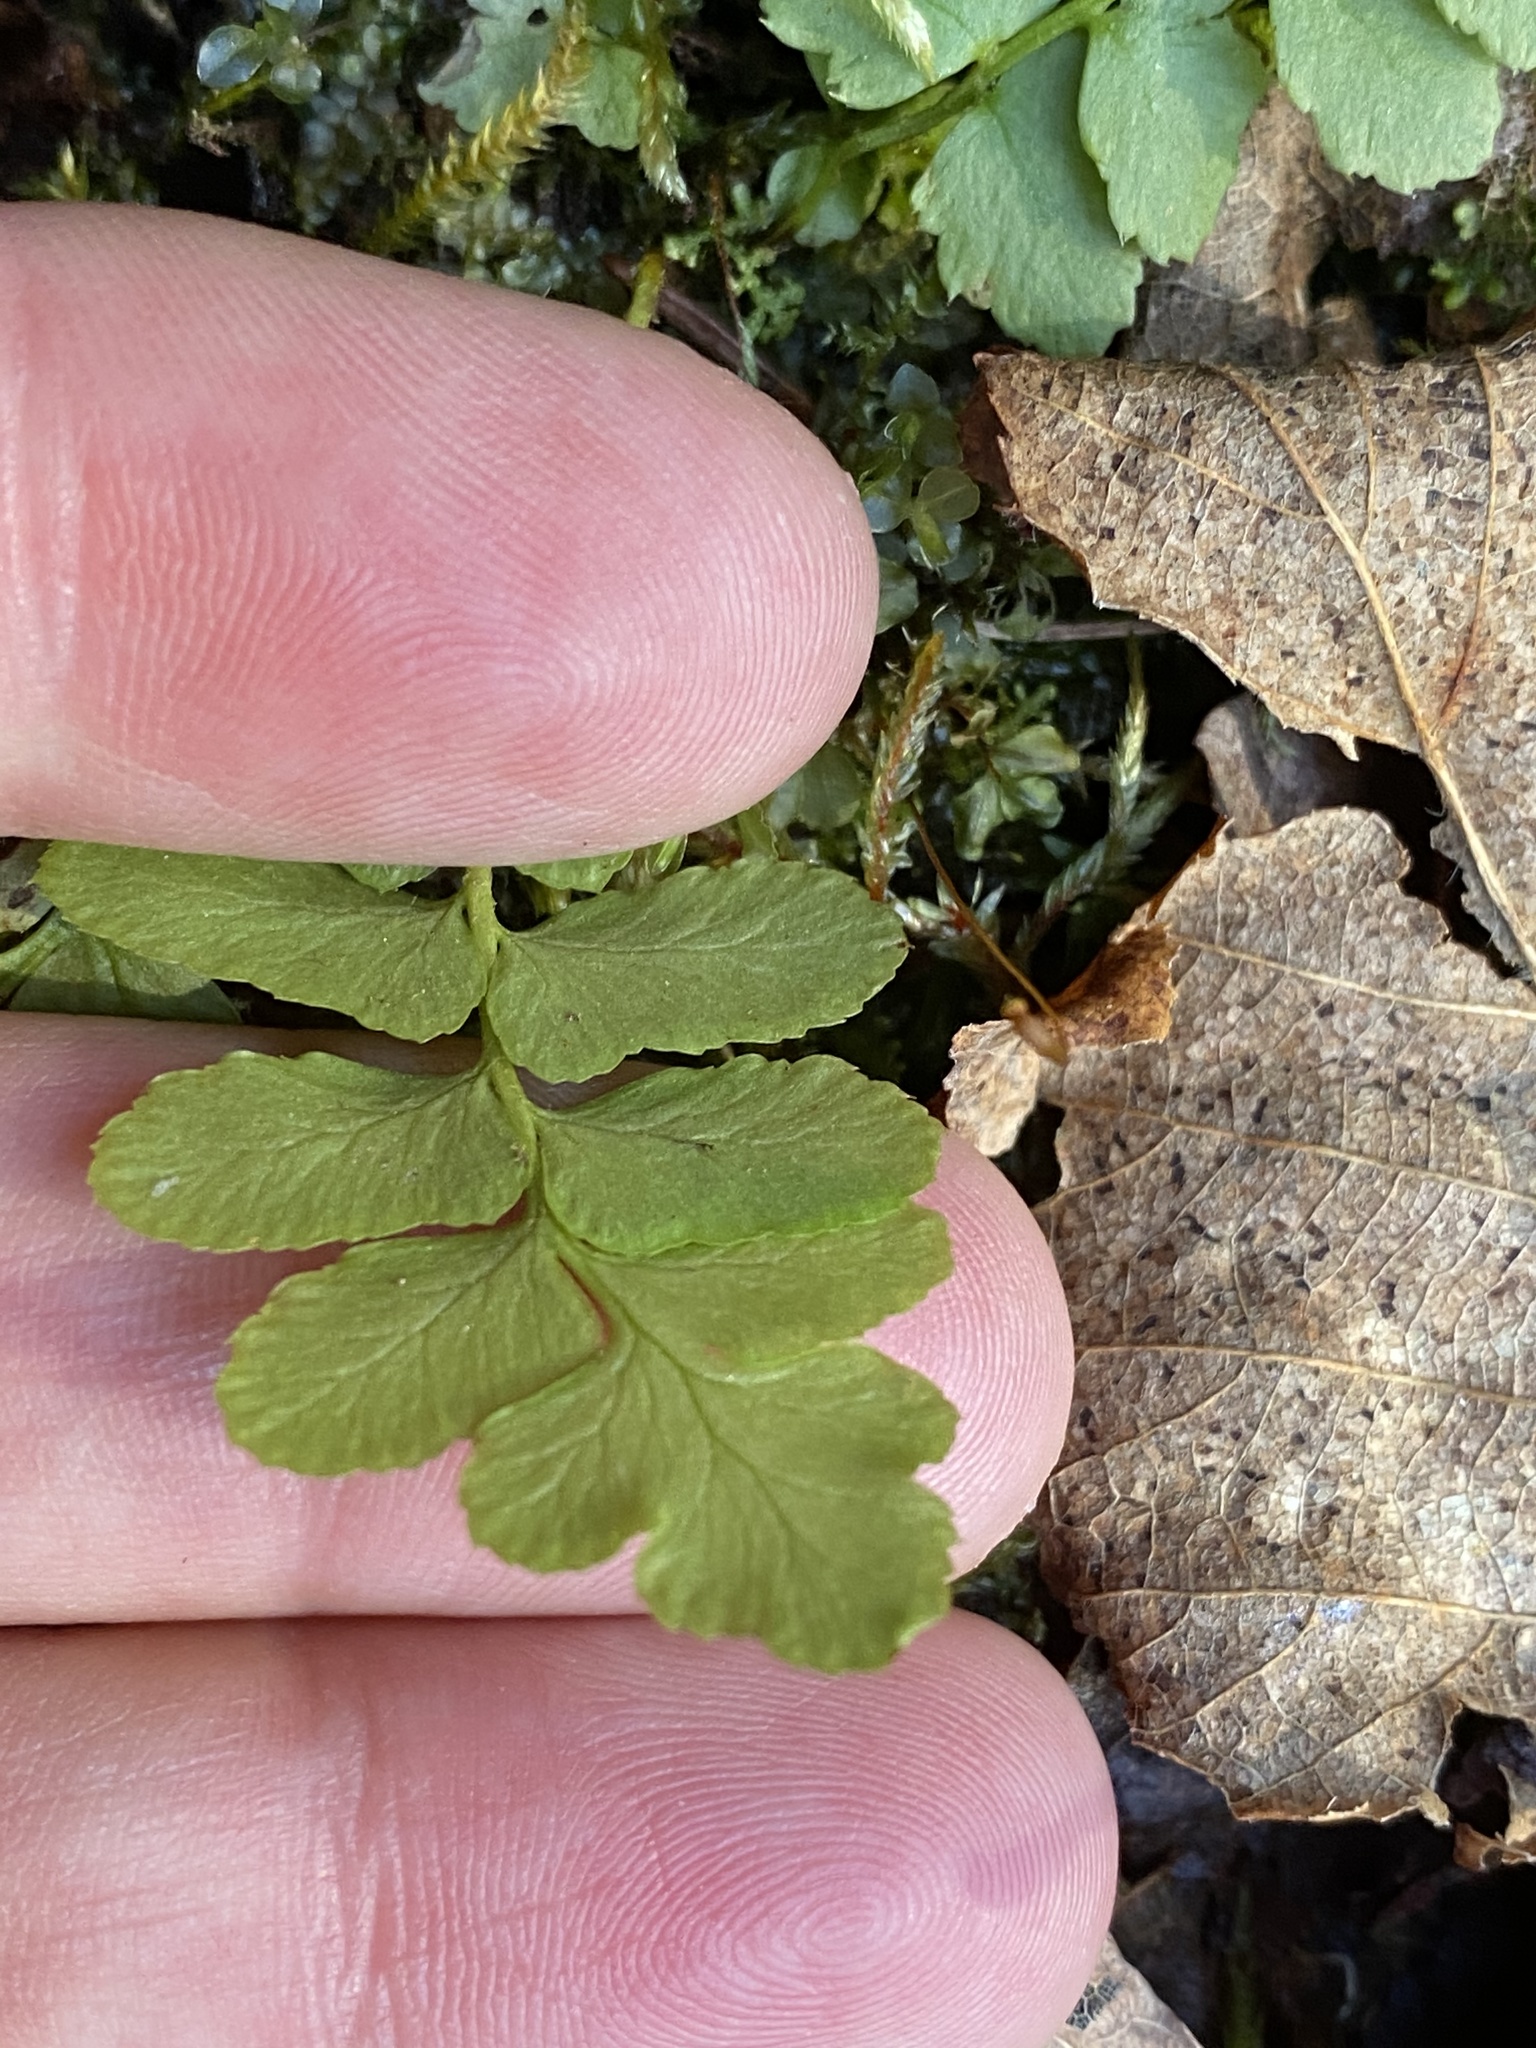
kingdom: Plantae
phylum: Tracheophyta
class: Polypodiopsida
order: Polypodiales
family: Dryopteridaceae
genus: Polystichum
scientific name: Polystichum acrostichoides
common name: Christmas fern
